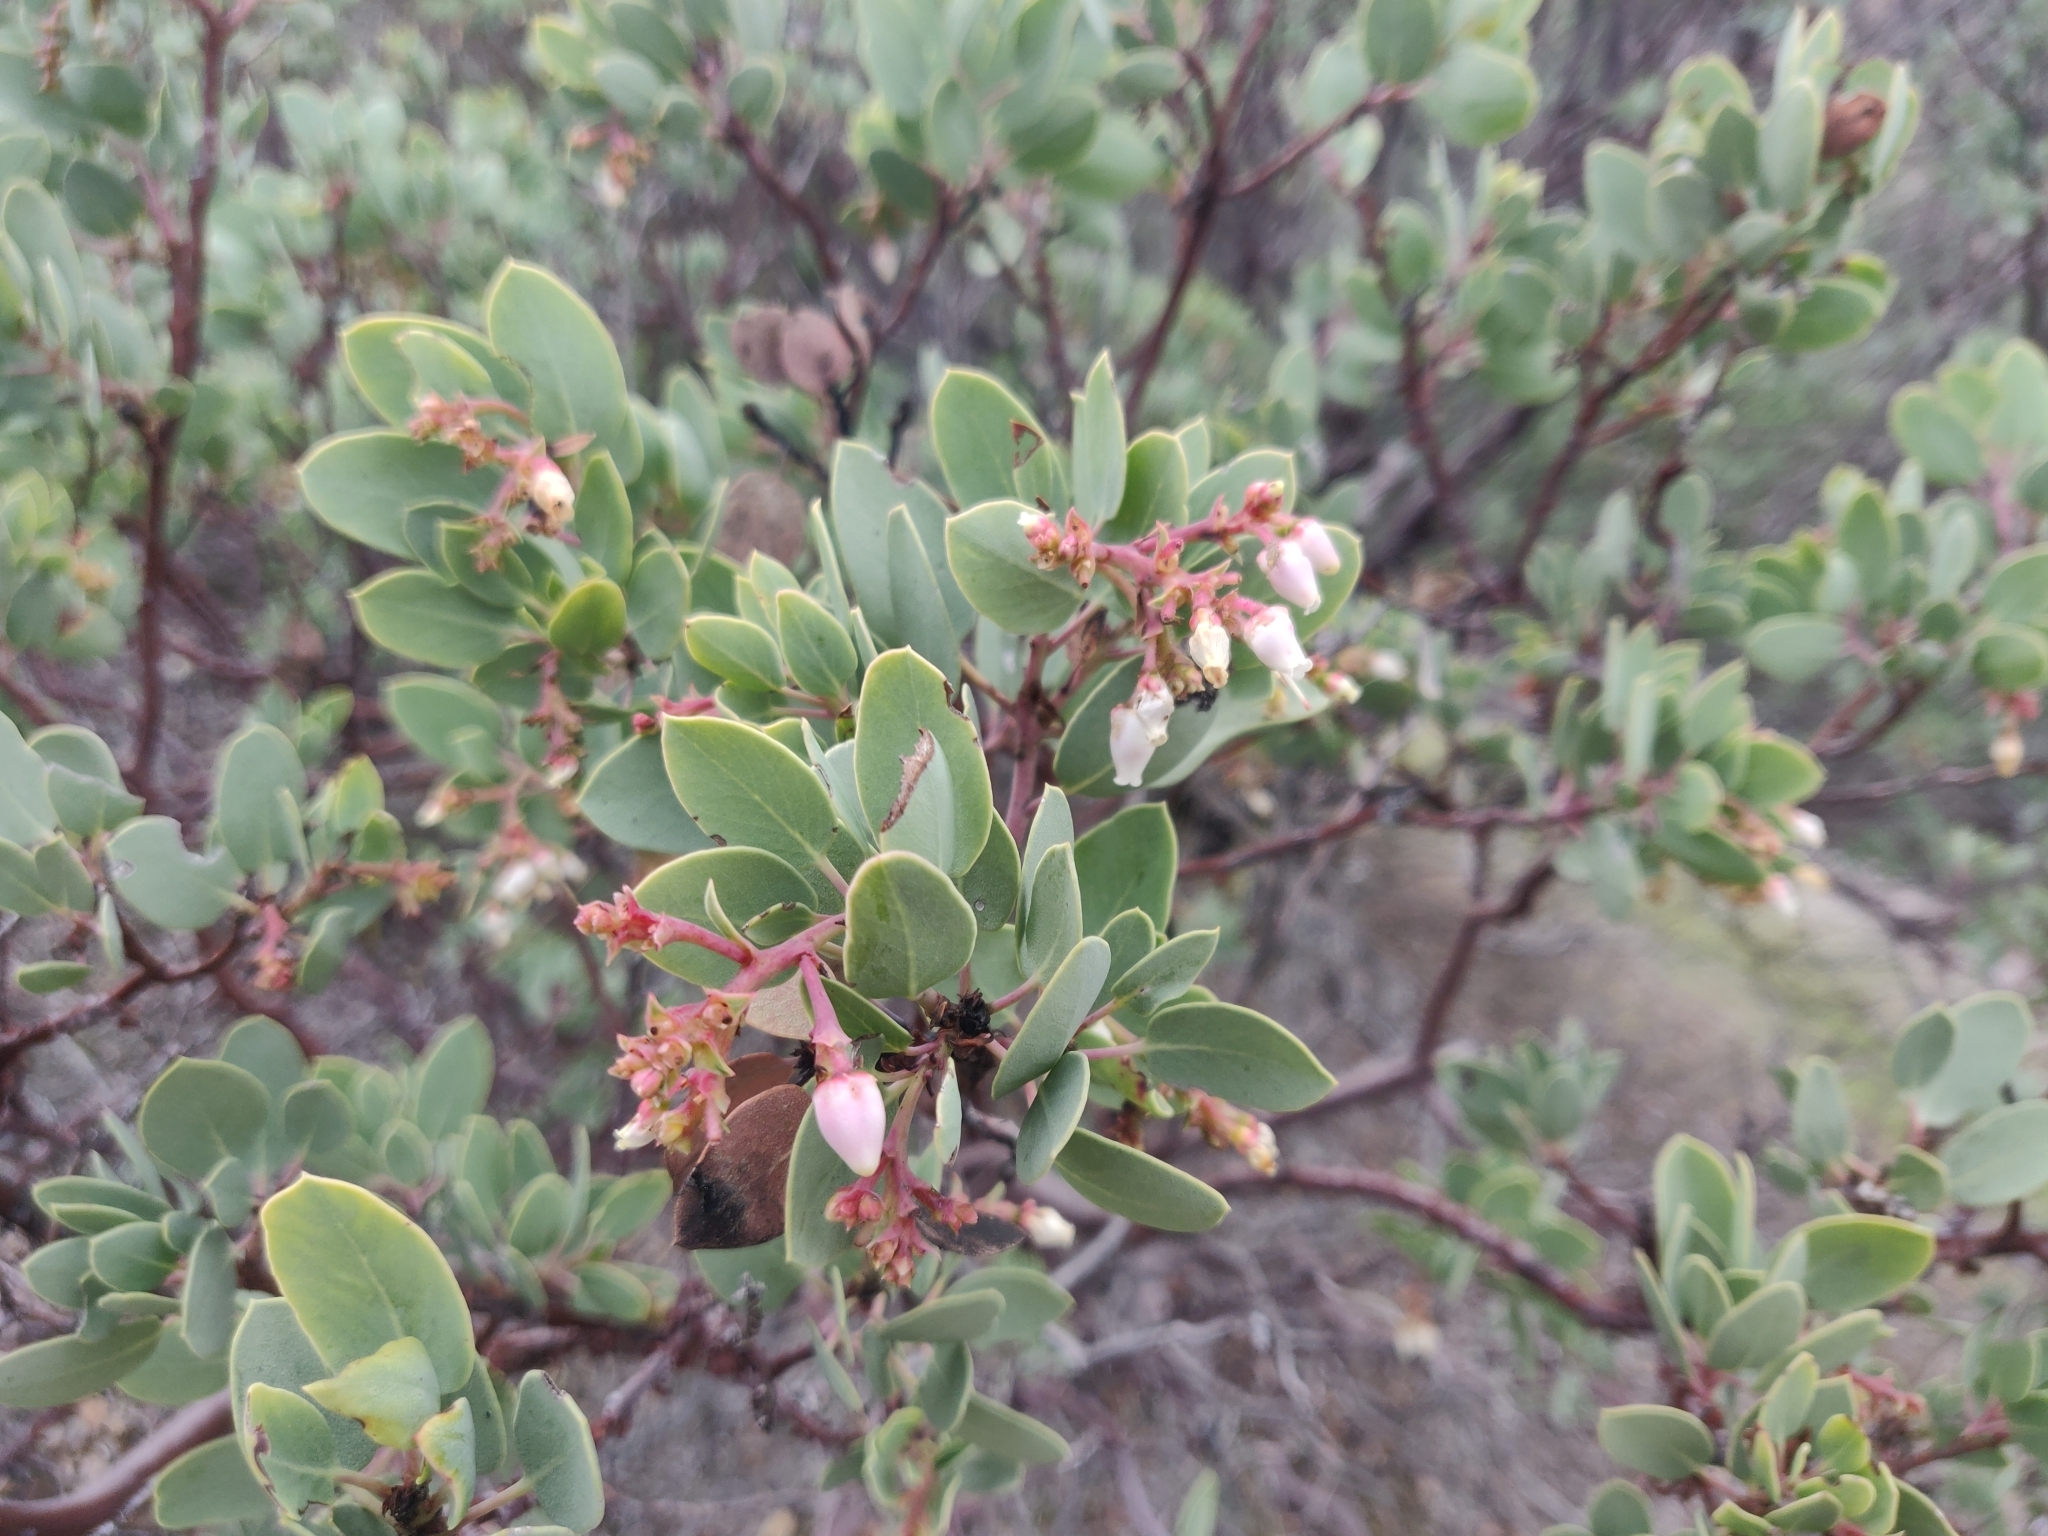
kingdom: Plantae
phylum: Tracheophyta
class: Magnoliopsida
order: Ericales
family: Ericaceae
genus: Arctostaphylos
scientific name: Arctostaphylos glauca
